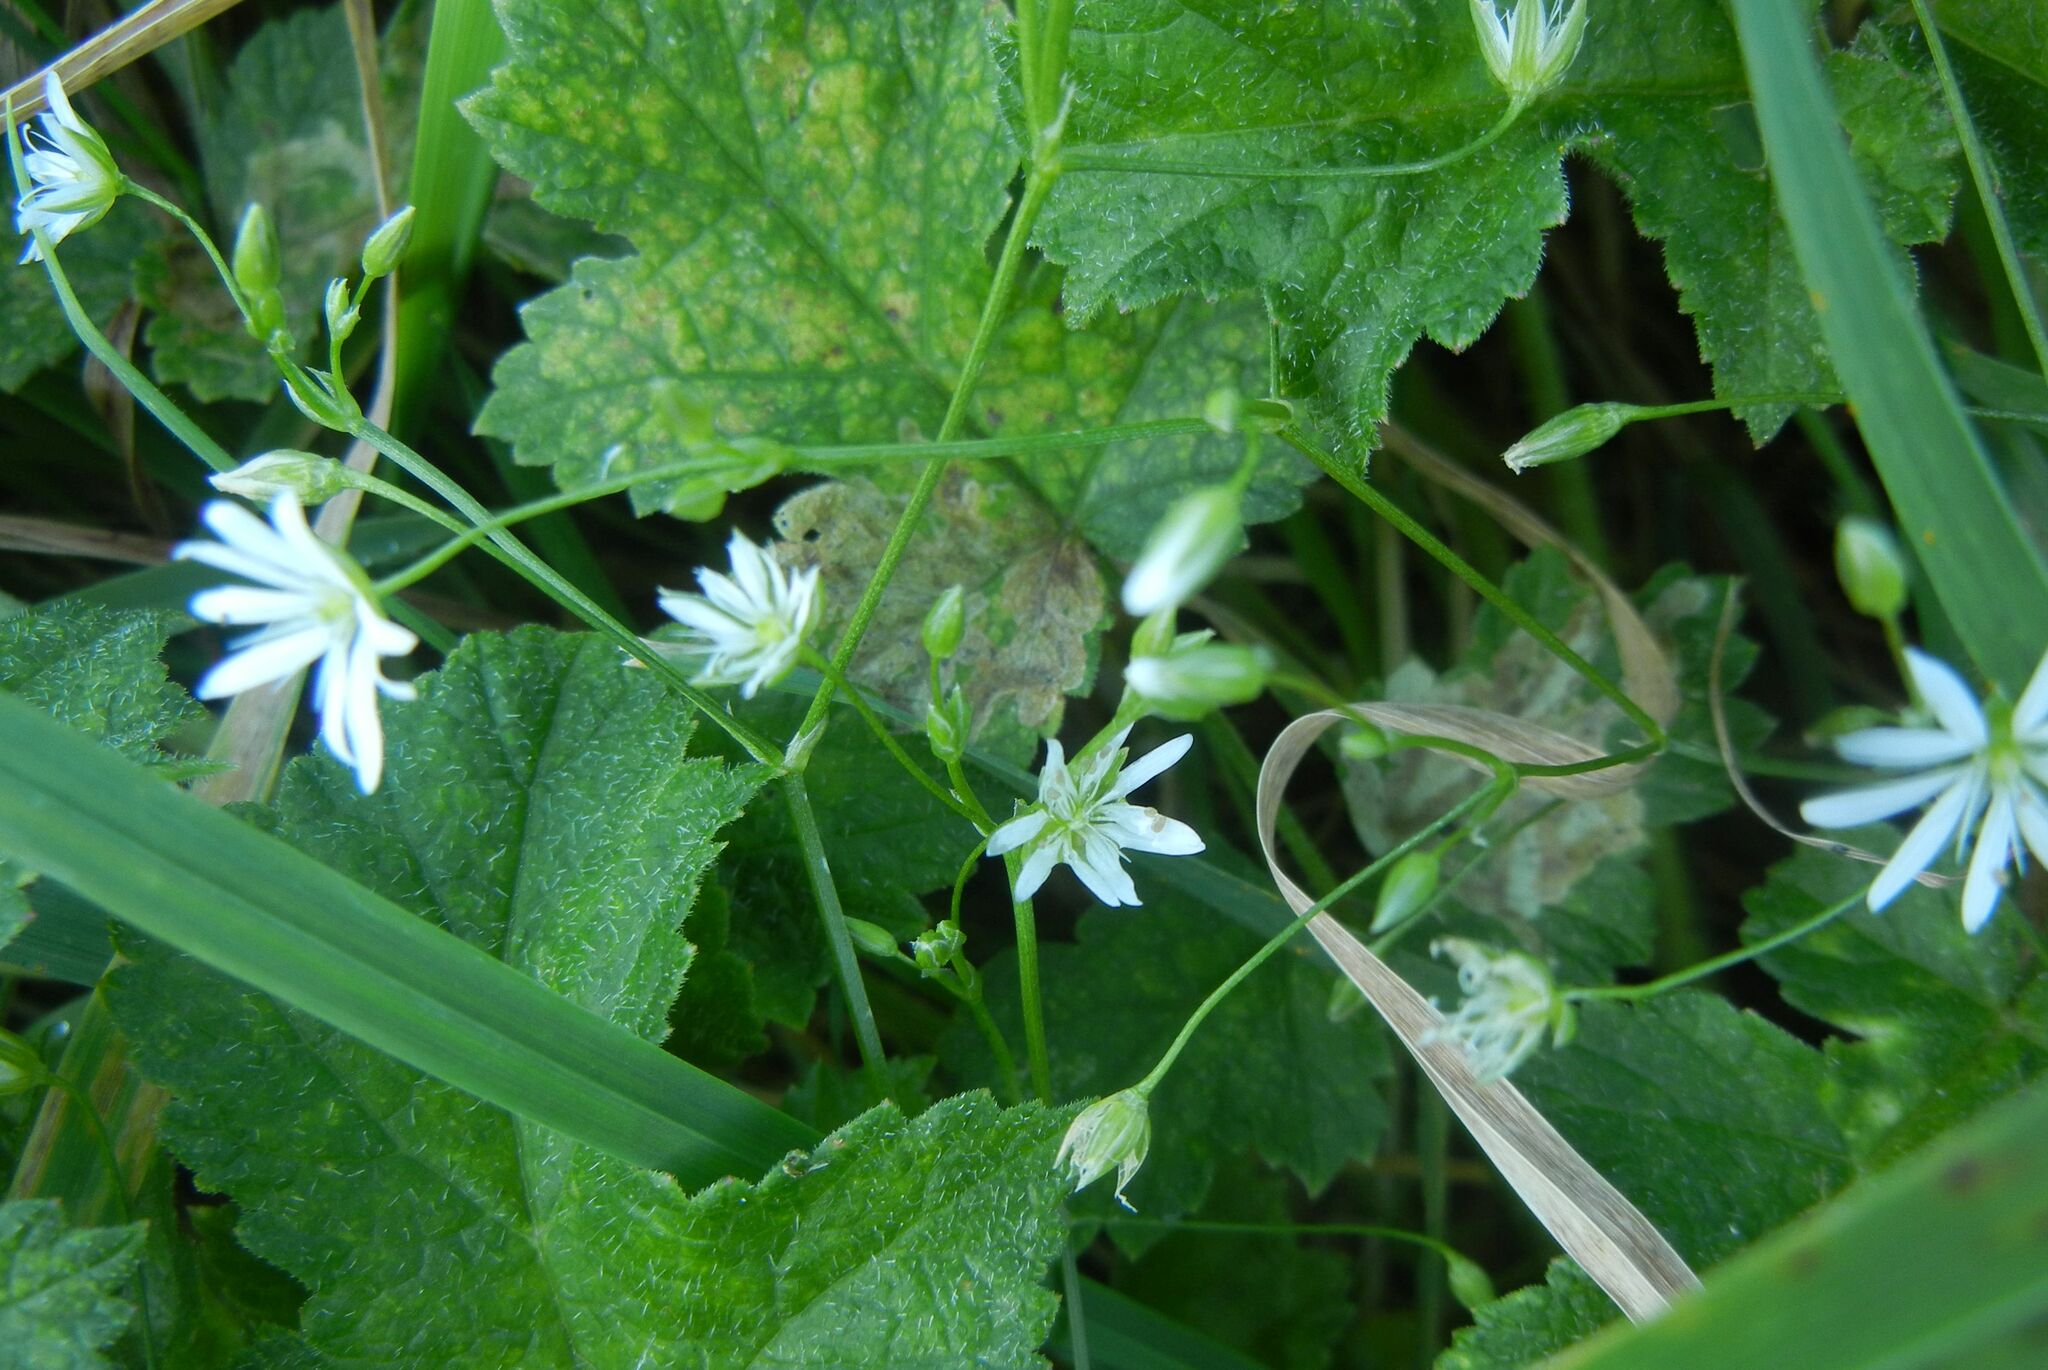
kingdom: Plantae
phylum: Tracheophyta
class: Magnoliopsida
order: Caryophyllales
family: Caryophyllaceae
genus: Stellaria
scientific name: Stellaria graminea
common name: Grass-like starwort
